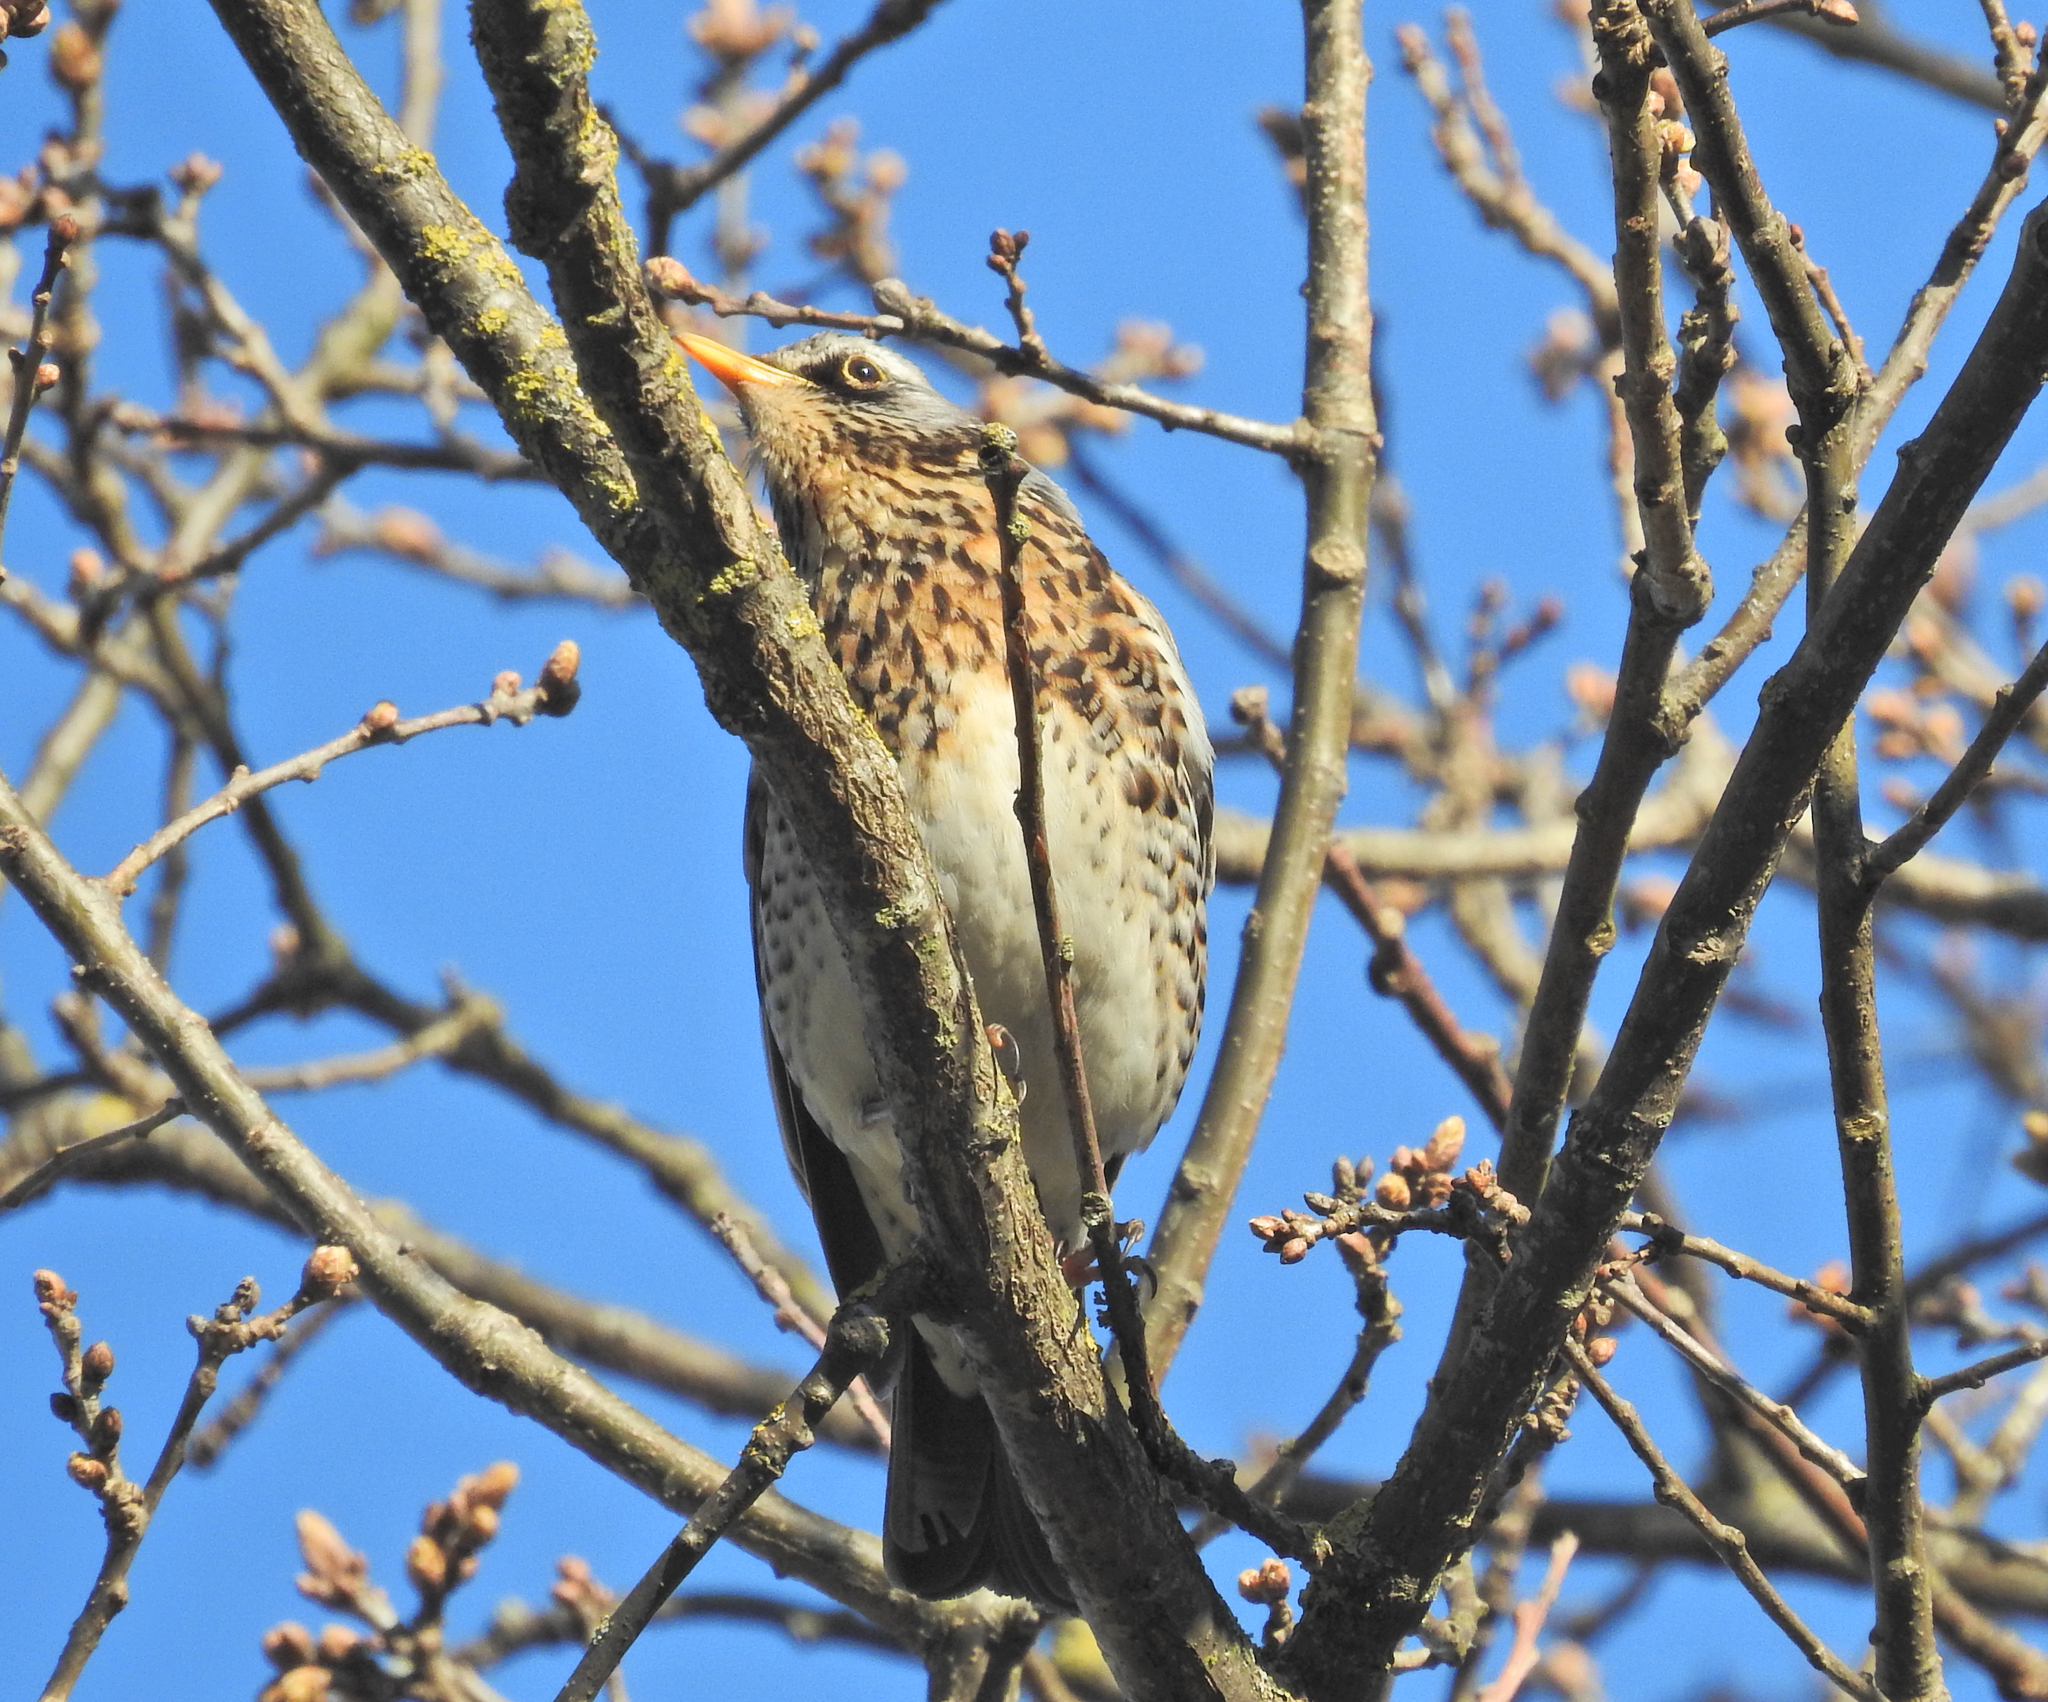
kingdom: Animalia
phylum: Chordata
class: Aves
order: Passeriformes
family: Turdidae
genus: Turdus
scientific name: Turdus pilaris
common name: Fieldfare
